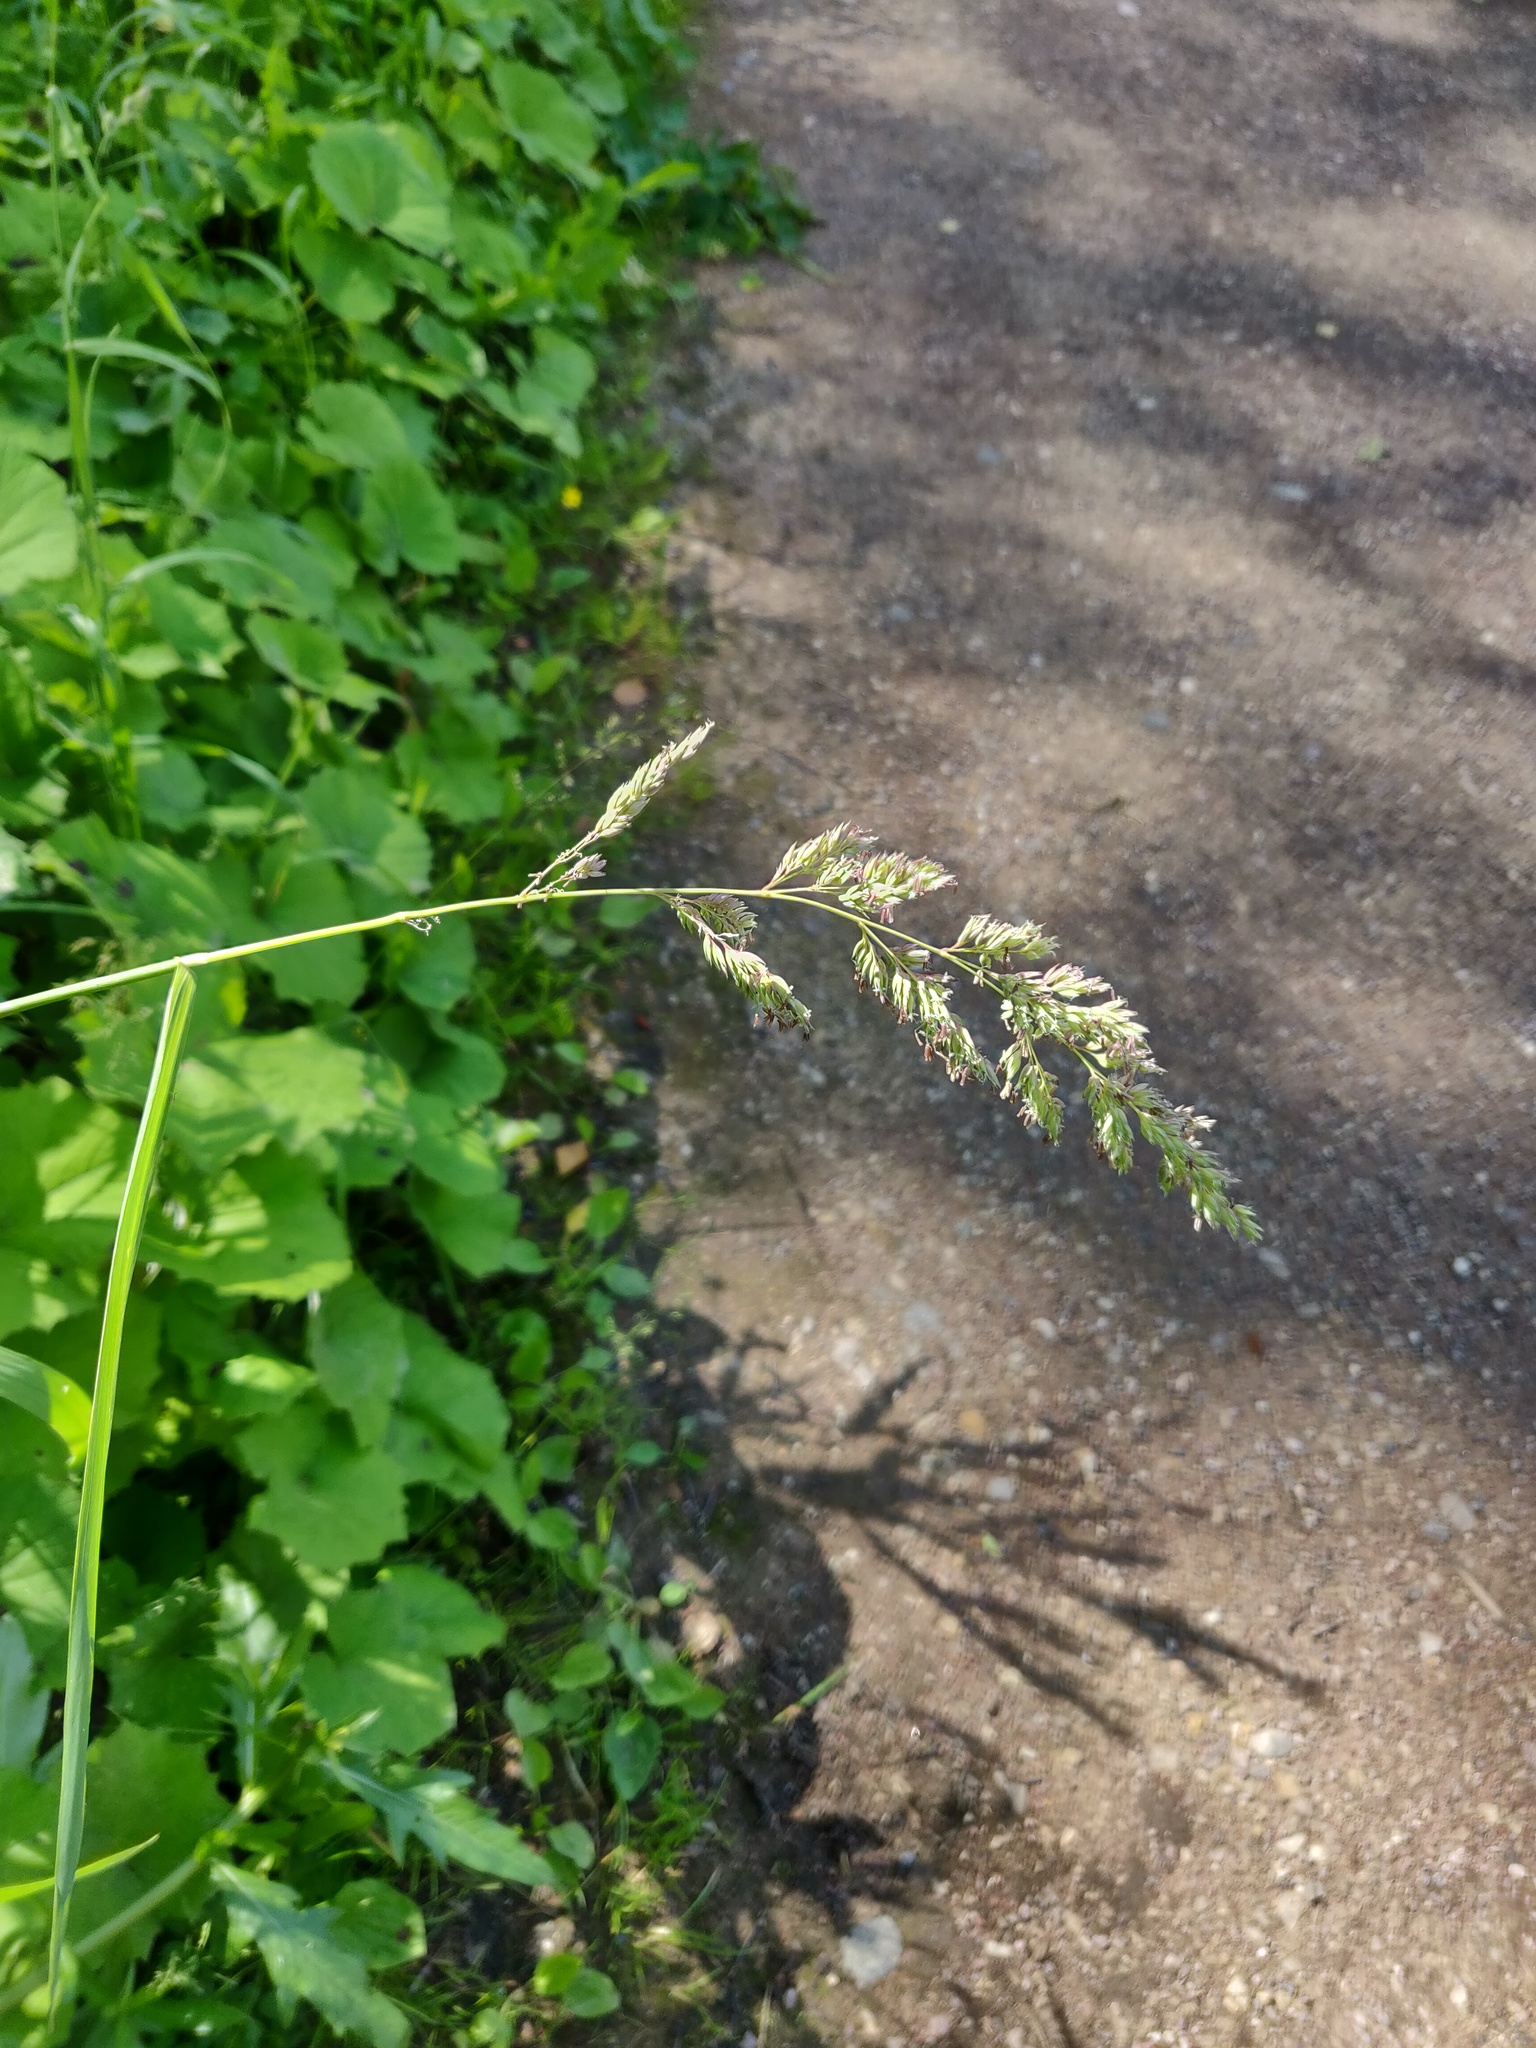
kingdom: Plantae
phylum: Tracheophyta
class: Liliopsida
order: Poales
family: Poaceae
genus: Phalaris
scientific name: Phalaris arundinacea
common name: Reed canary-grass
